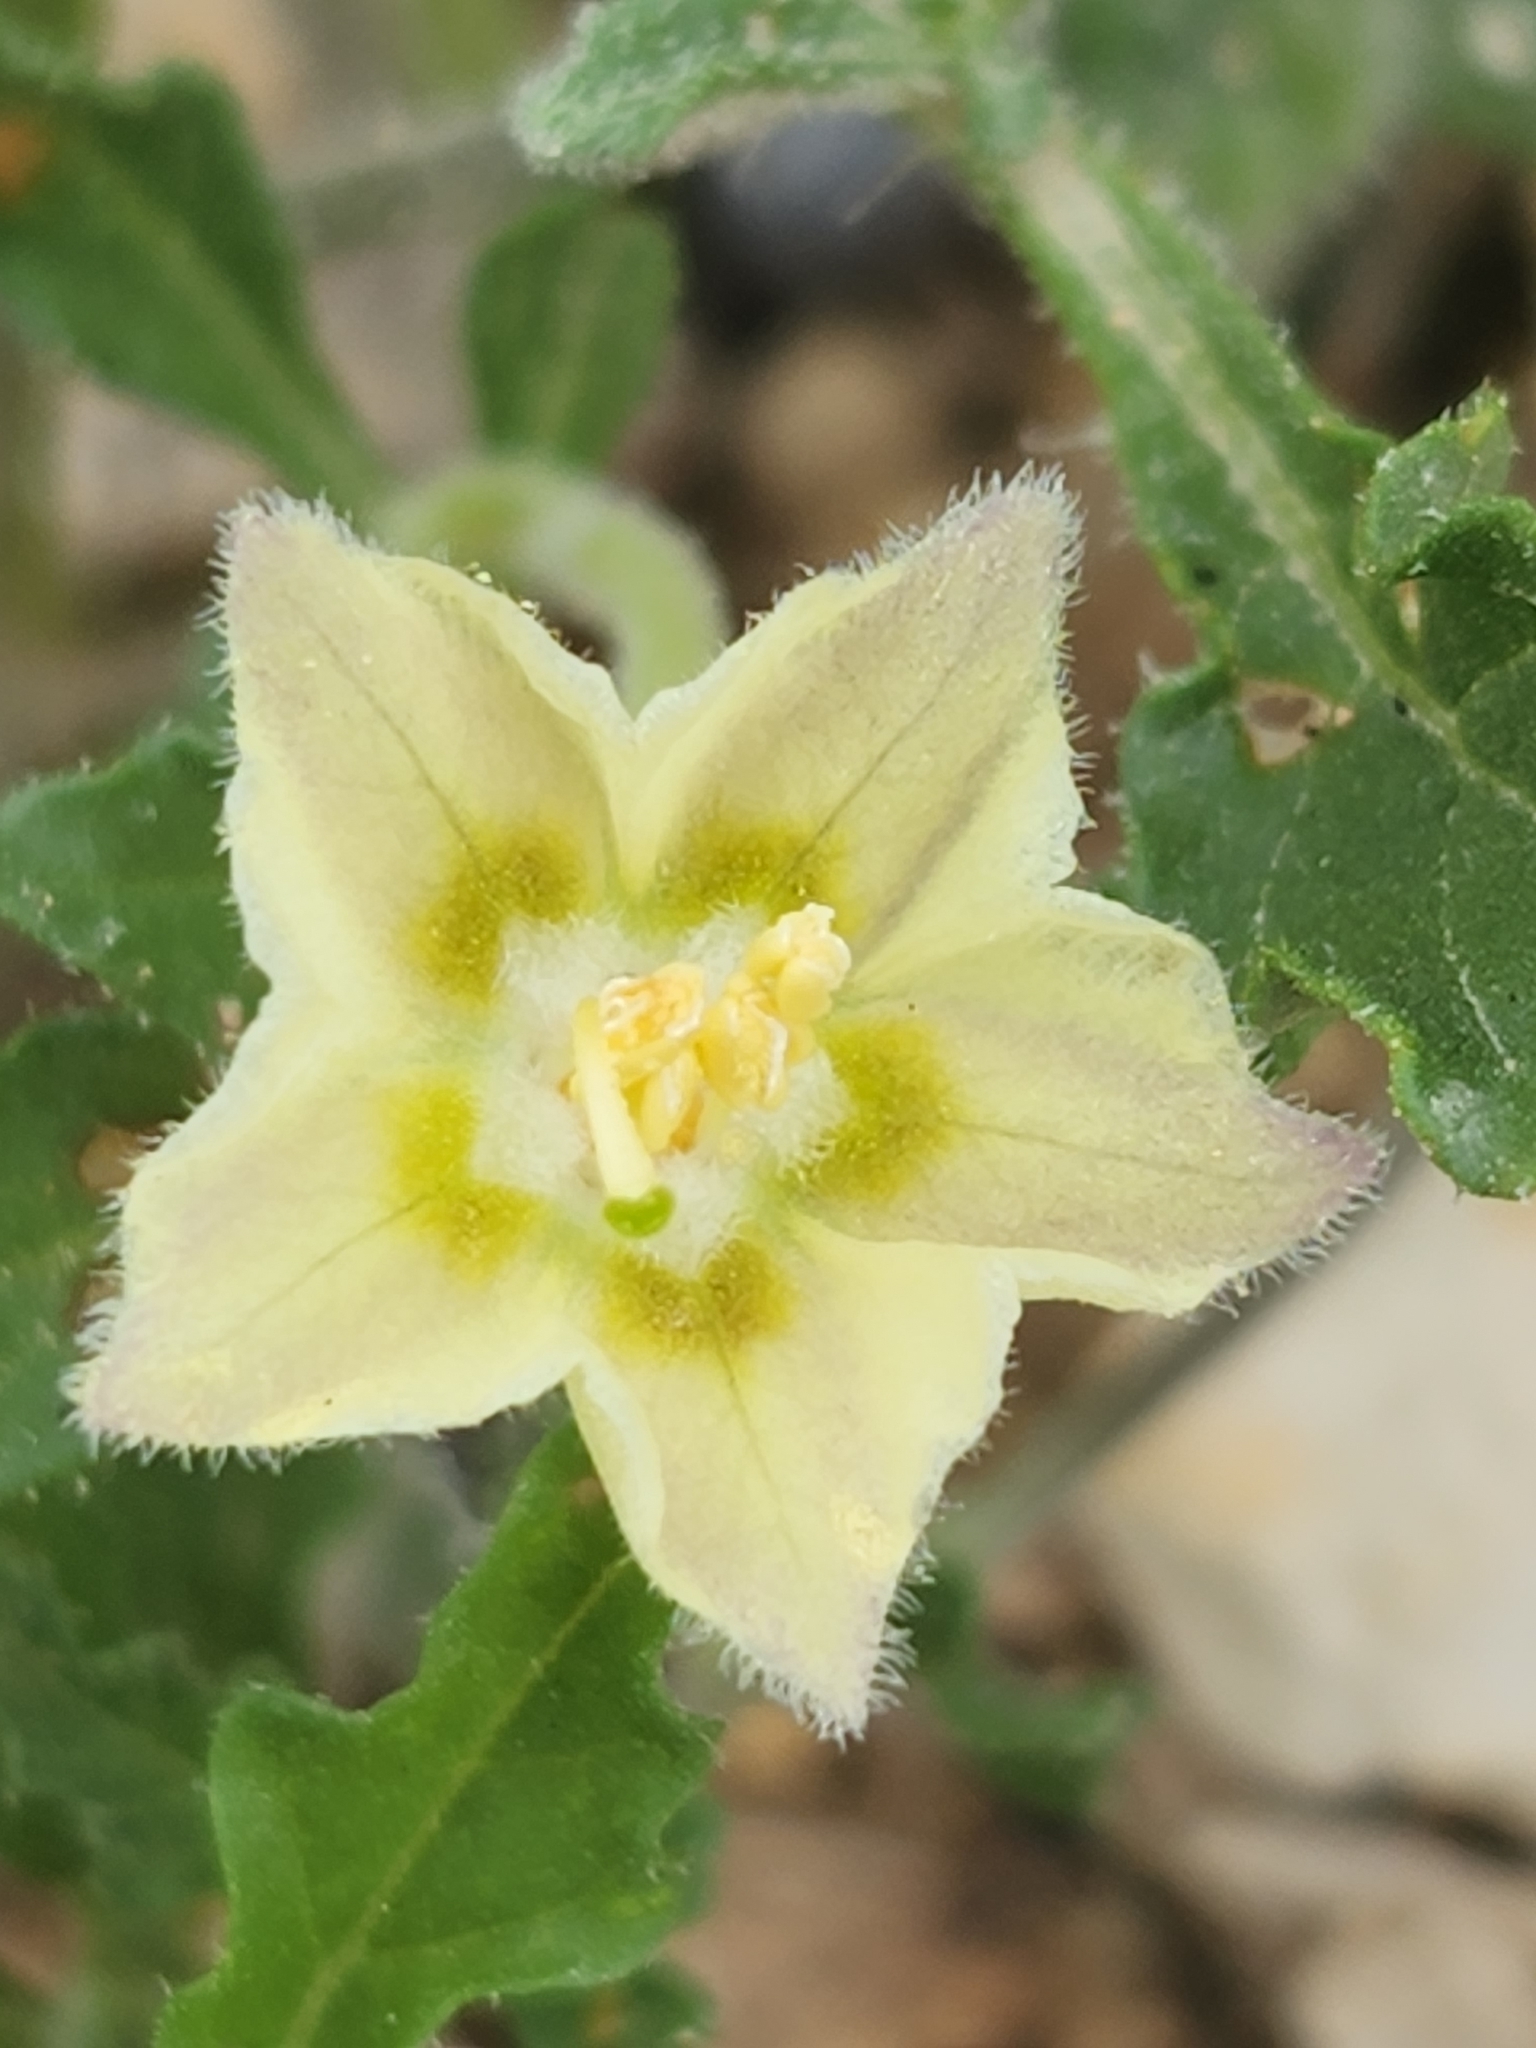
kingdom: Plantae
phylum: Tracheophyta
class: Magnoliopsida
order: Solanales
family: Solanaceae
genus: Chamaesaracha
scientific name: Chamaesaracha edwardsiana
